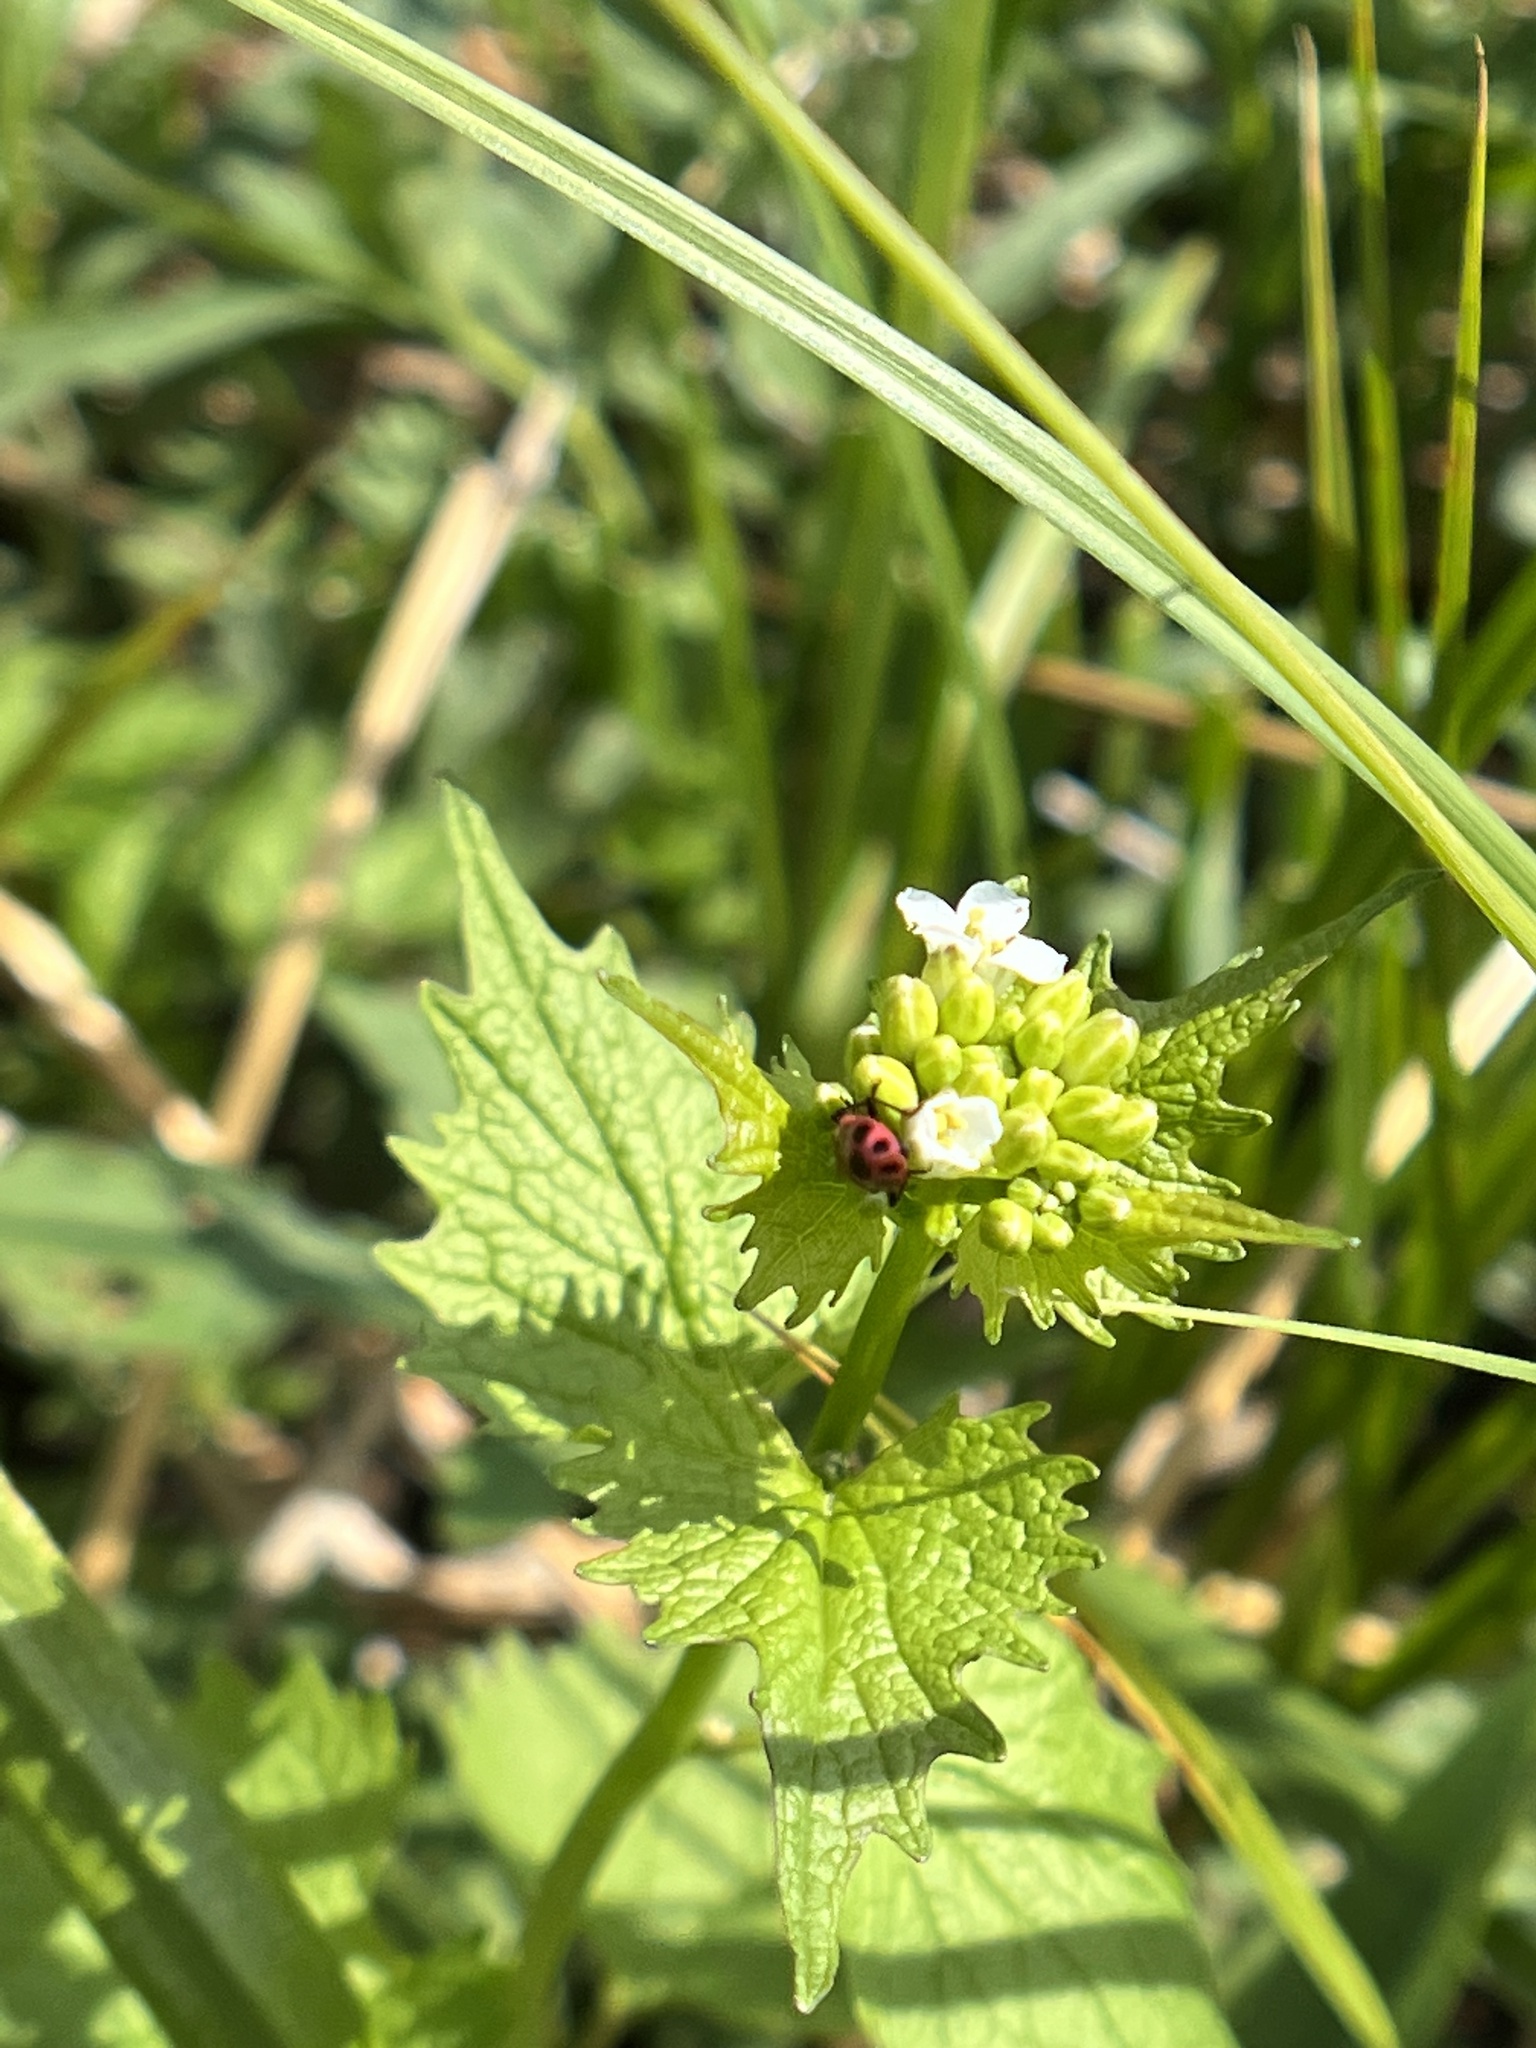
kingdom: Animalia
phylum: Arthropoda
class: Insecta
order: Coleoptera
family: Coccinellidae
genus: Coleomegilla
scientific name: Coleomegilla maculata
